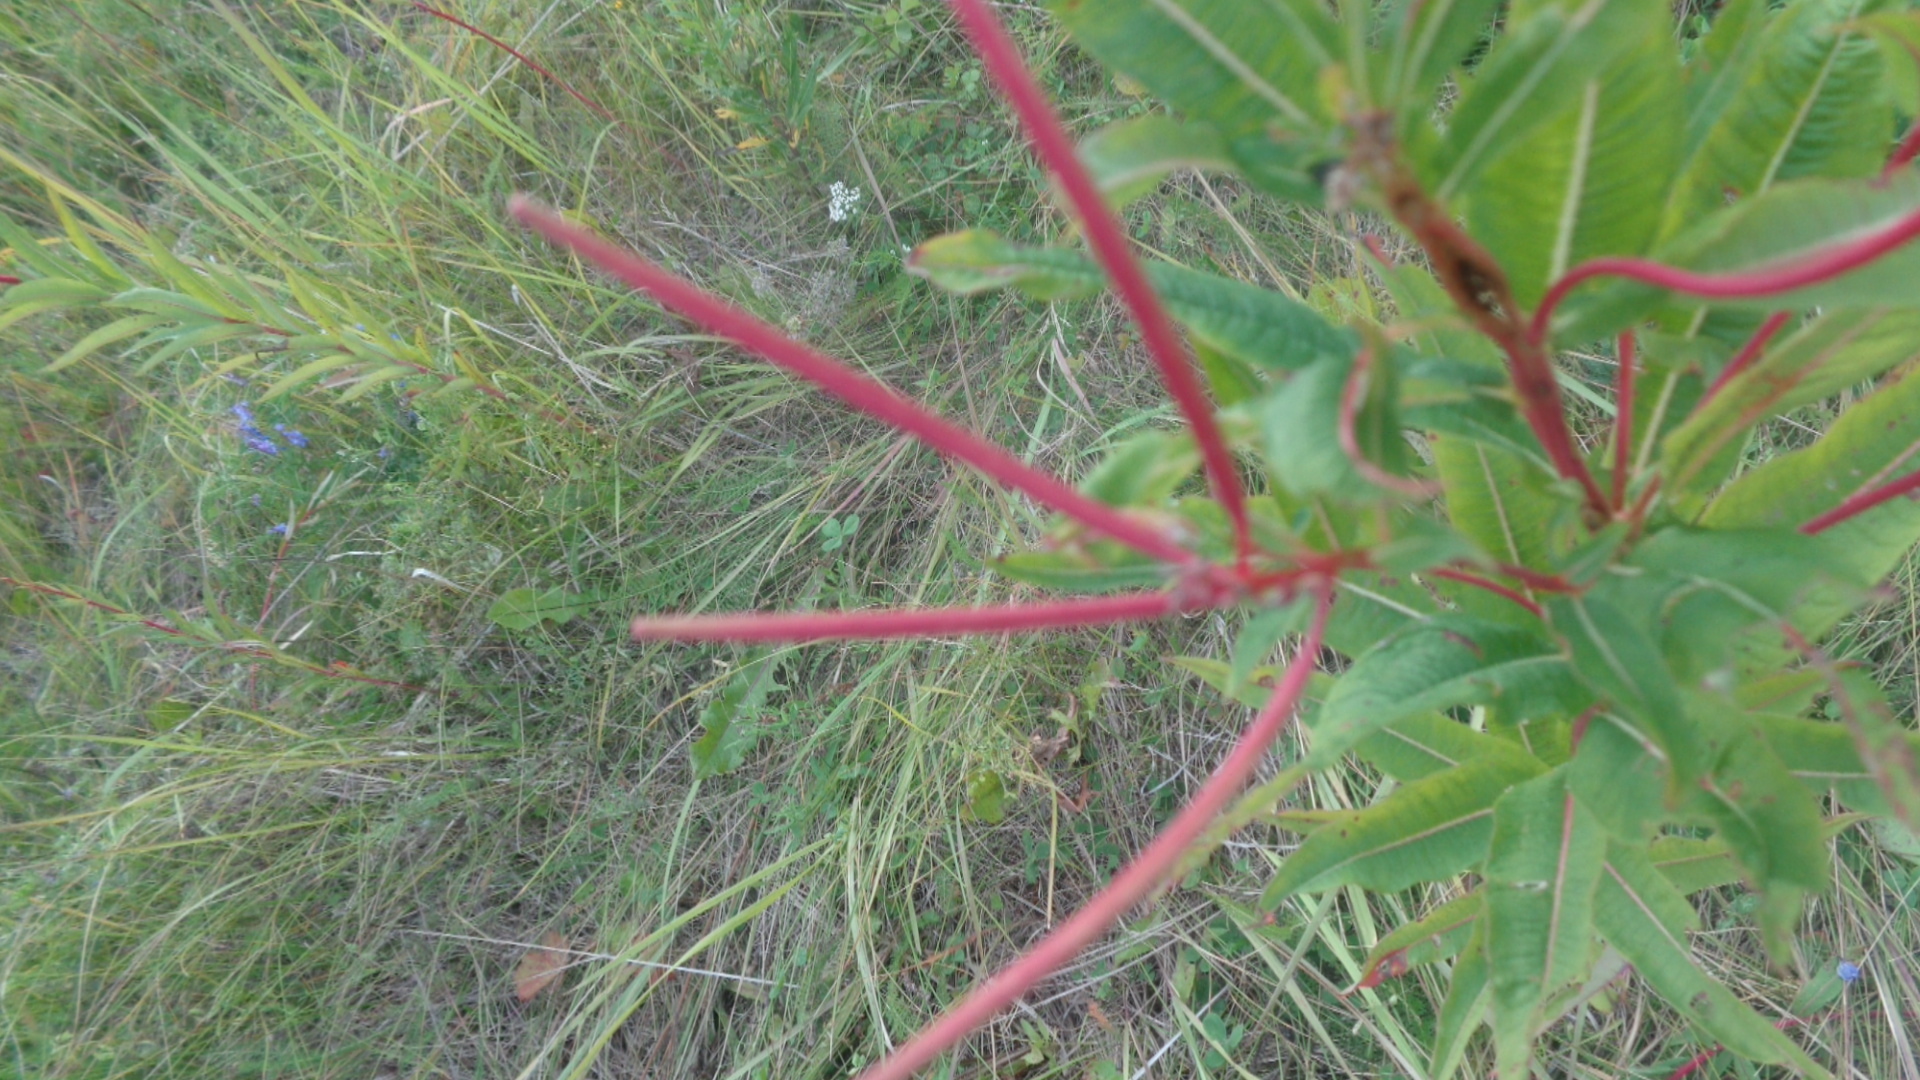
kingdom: Plantae
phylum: Tracheophyta
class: Magnoliopsida
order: Myrtales
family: Onagraceae
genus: Chamaenerion
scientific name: Chamaenerion angustifolium
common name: Fireweed
